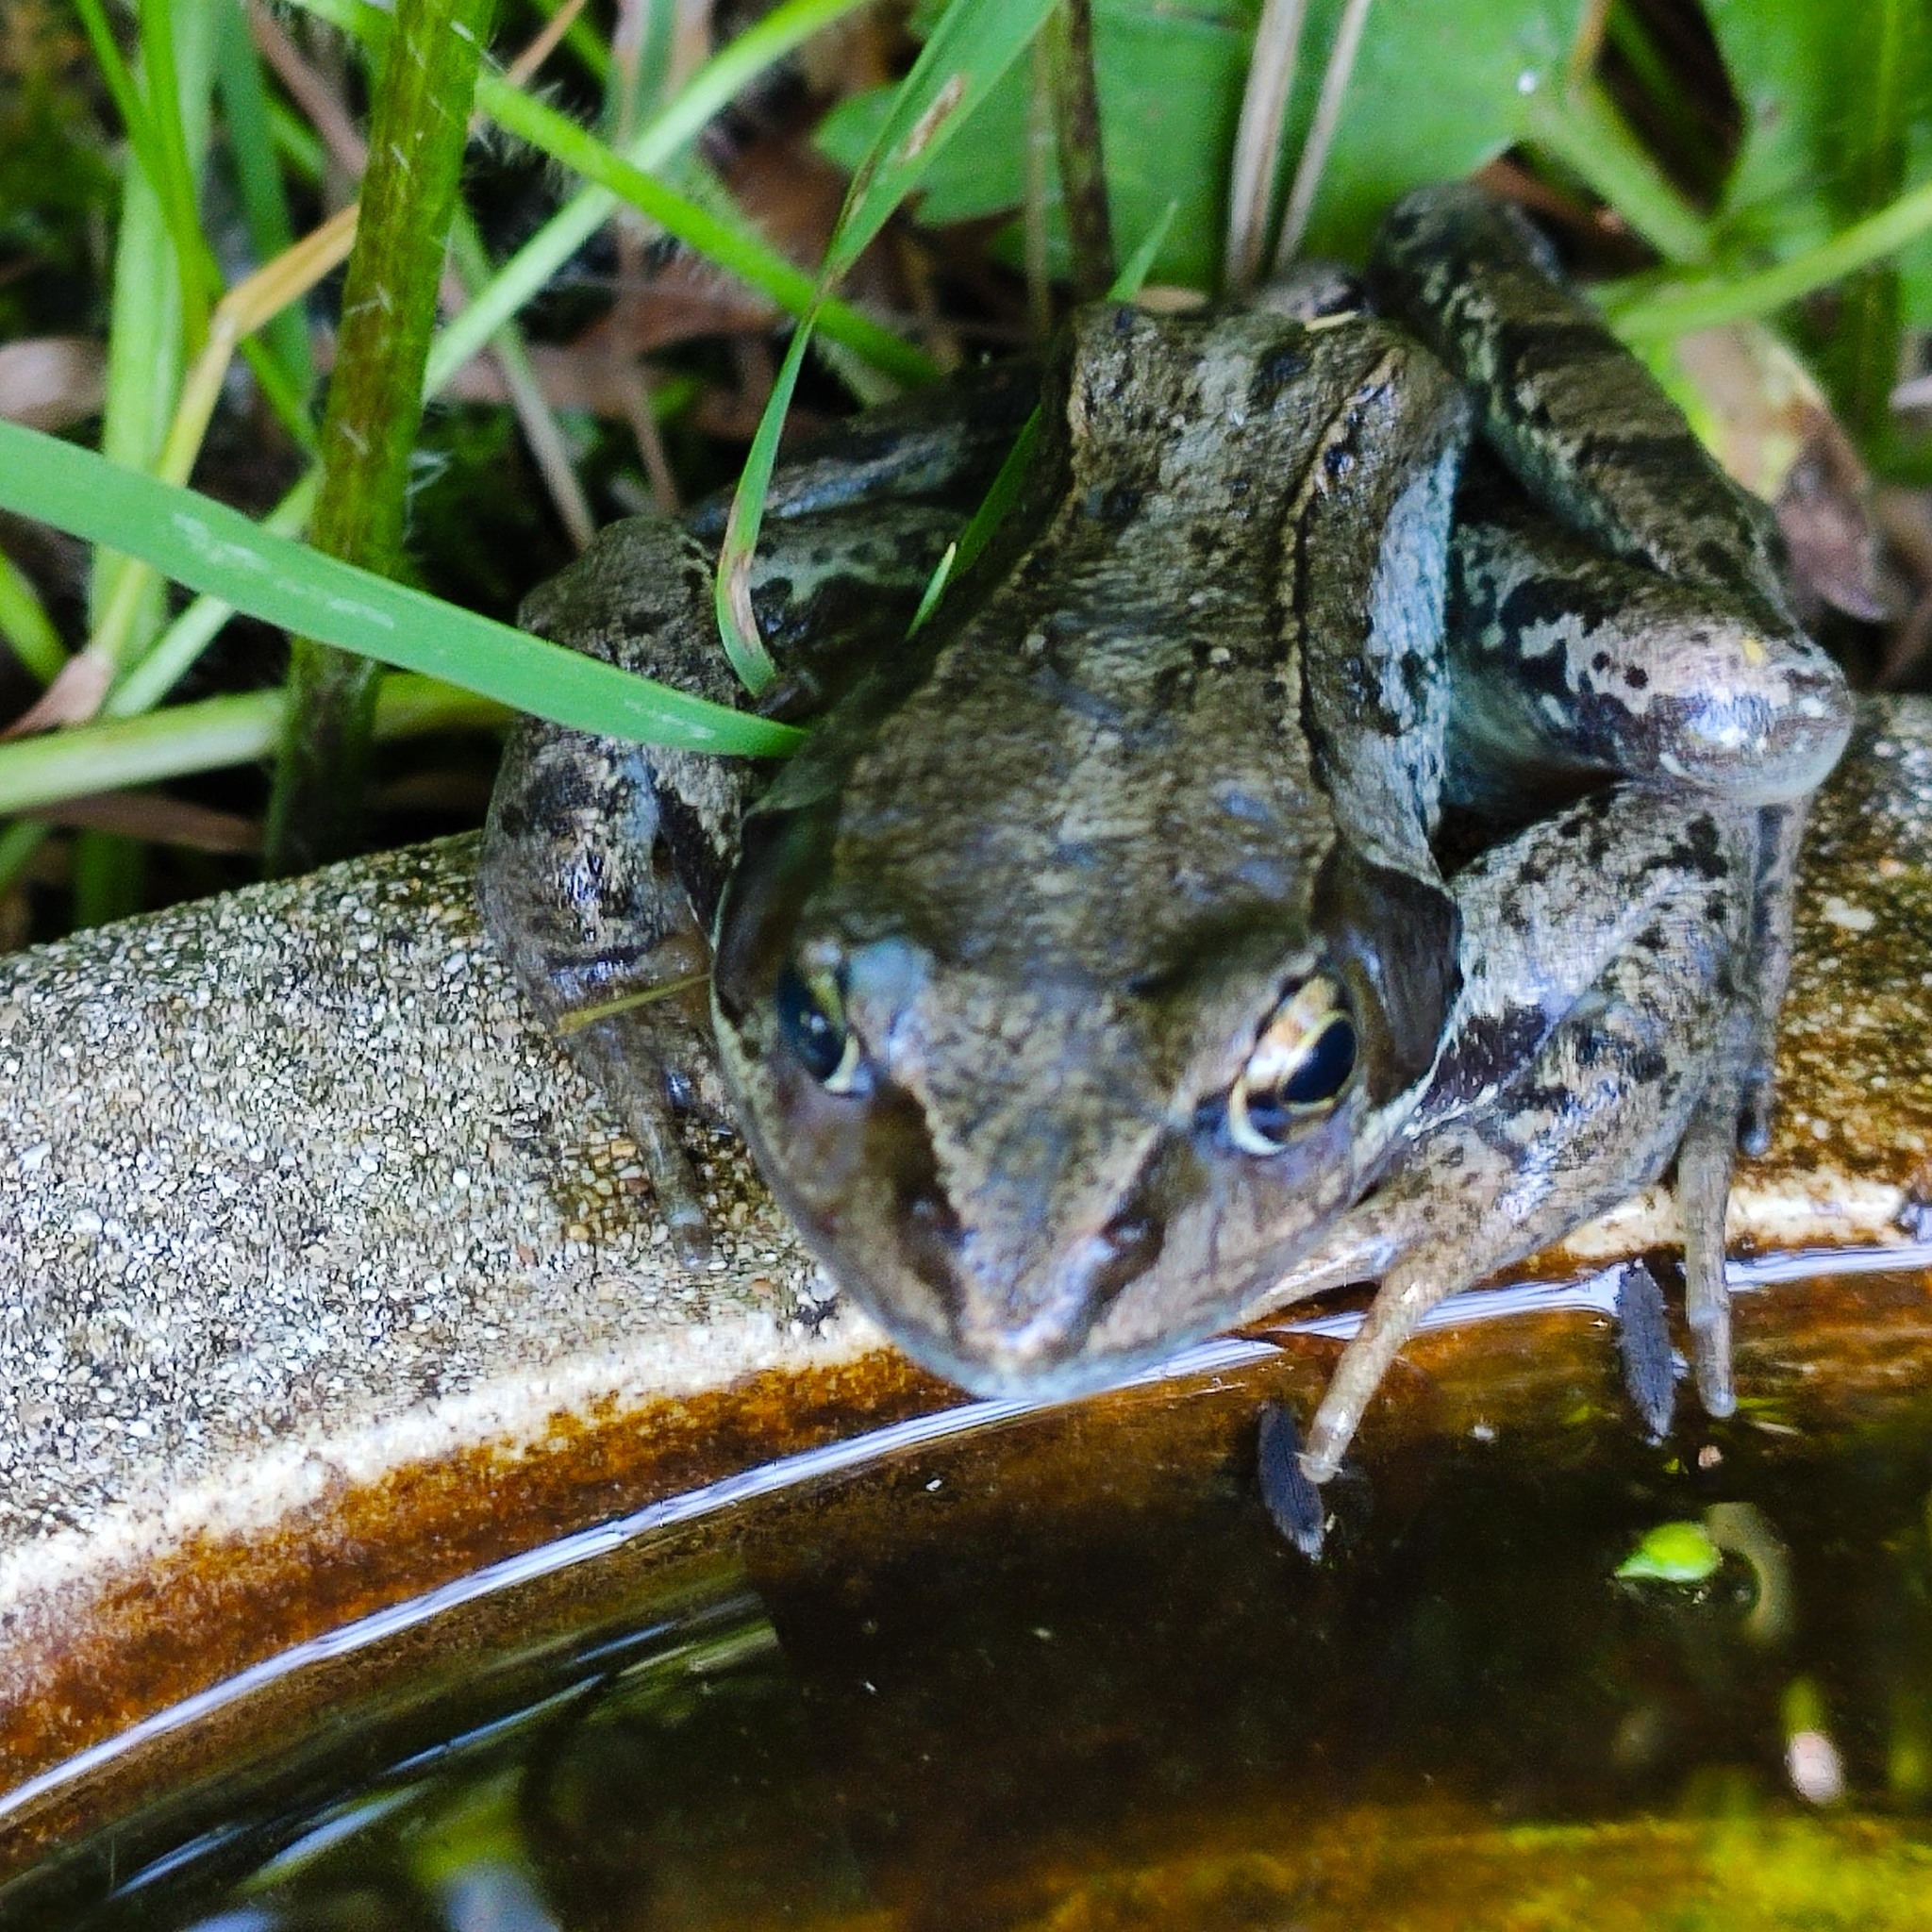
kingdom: Animalia
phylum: Chordata
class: Amphibia
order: Anura
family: Ranidae
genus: Rana
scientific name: Rana temporaria
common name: Common frog
